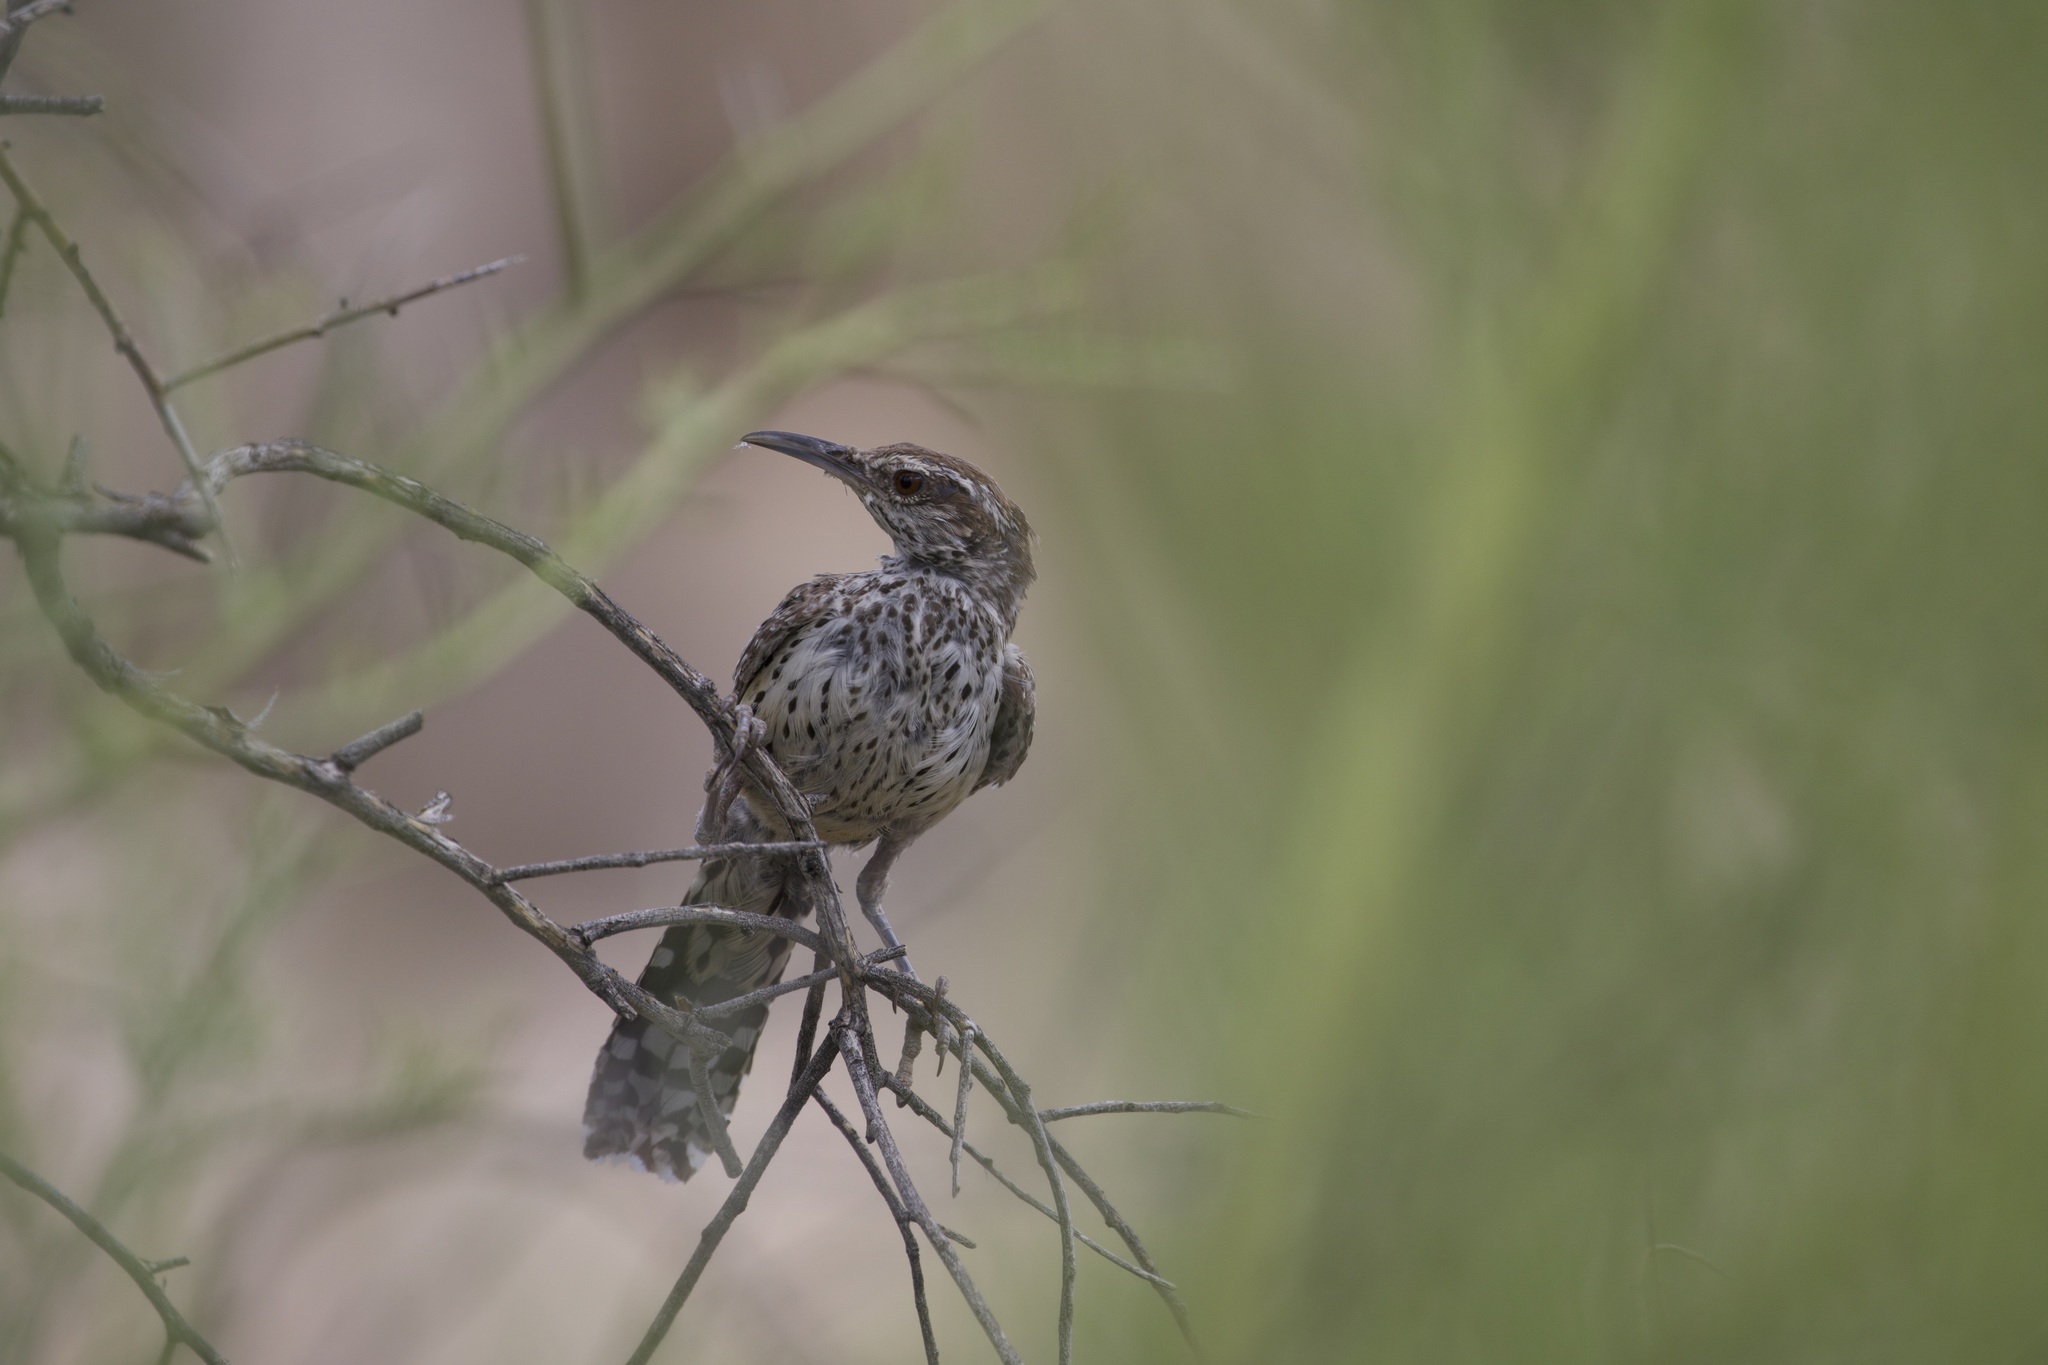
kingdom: Animalia
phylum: Chordata
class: Aves
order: Passeriformes
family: Troglodytidae
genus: Campylorhynchus
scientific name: Campylorhynchus brunneicapillus
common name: Cactus wren
